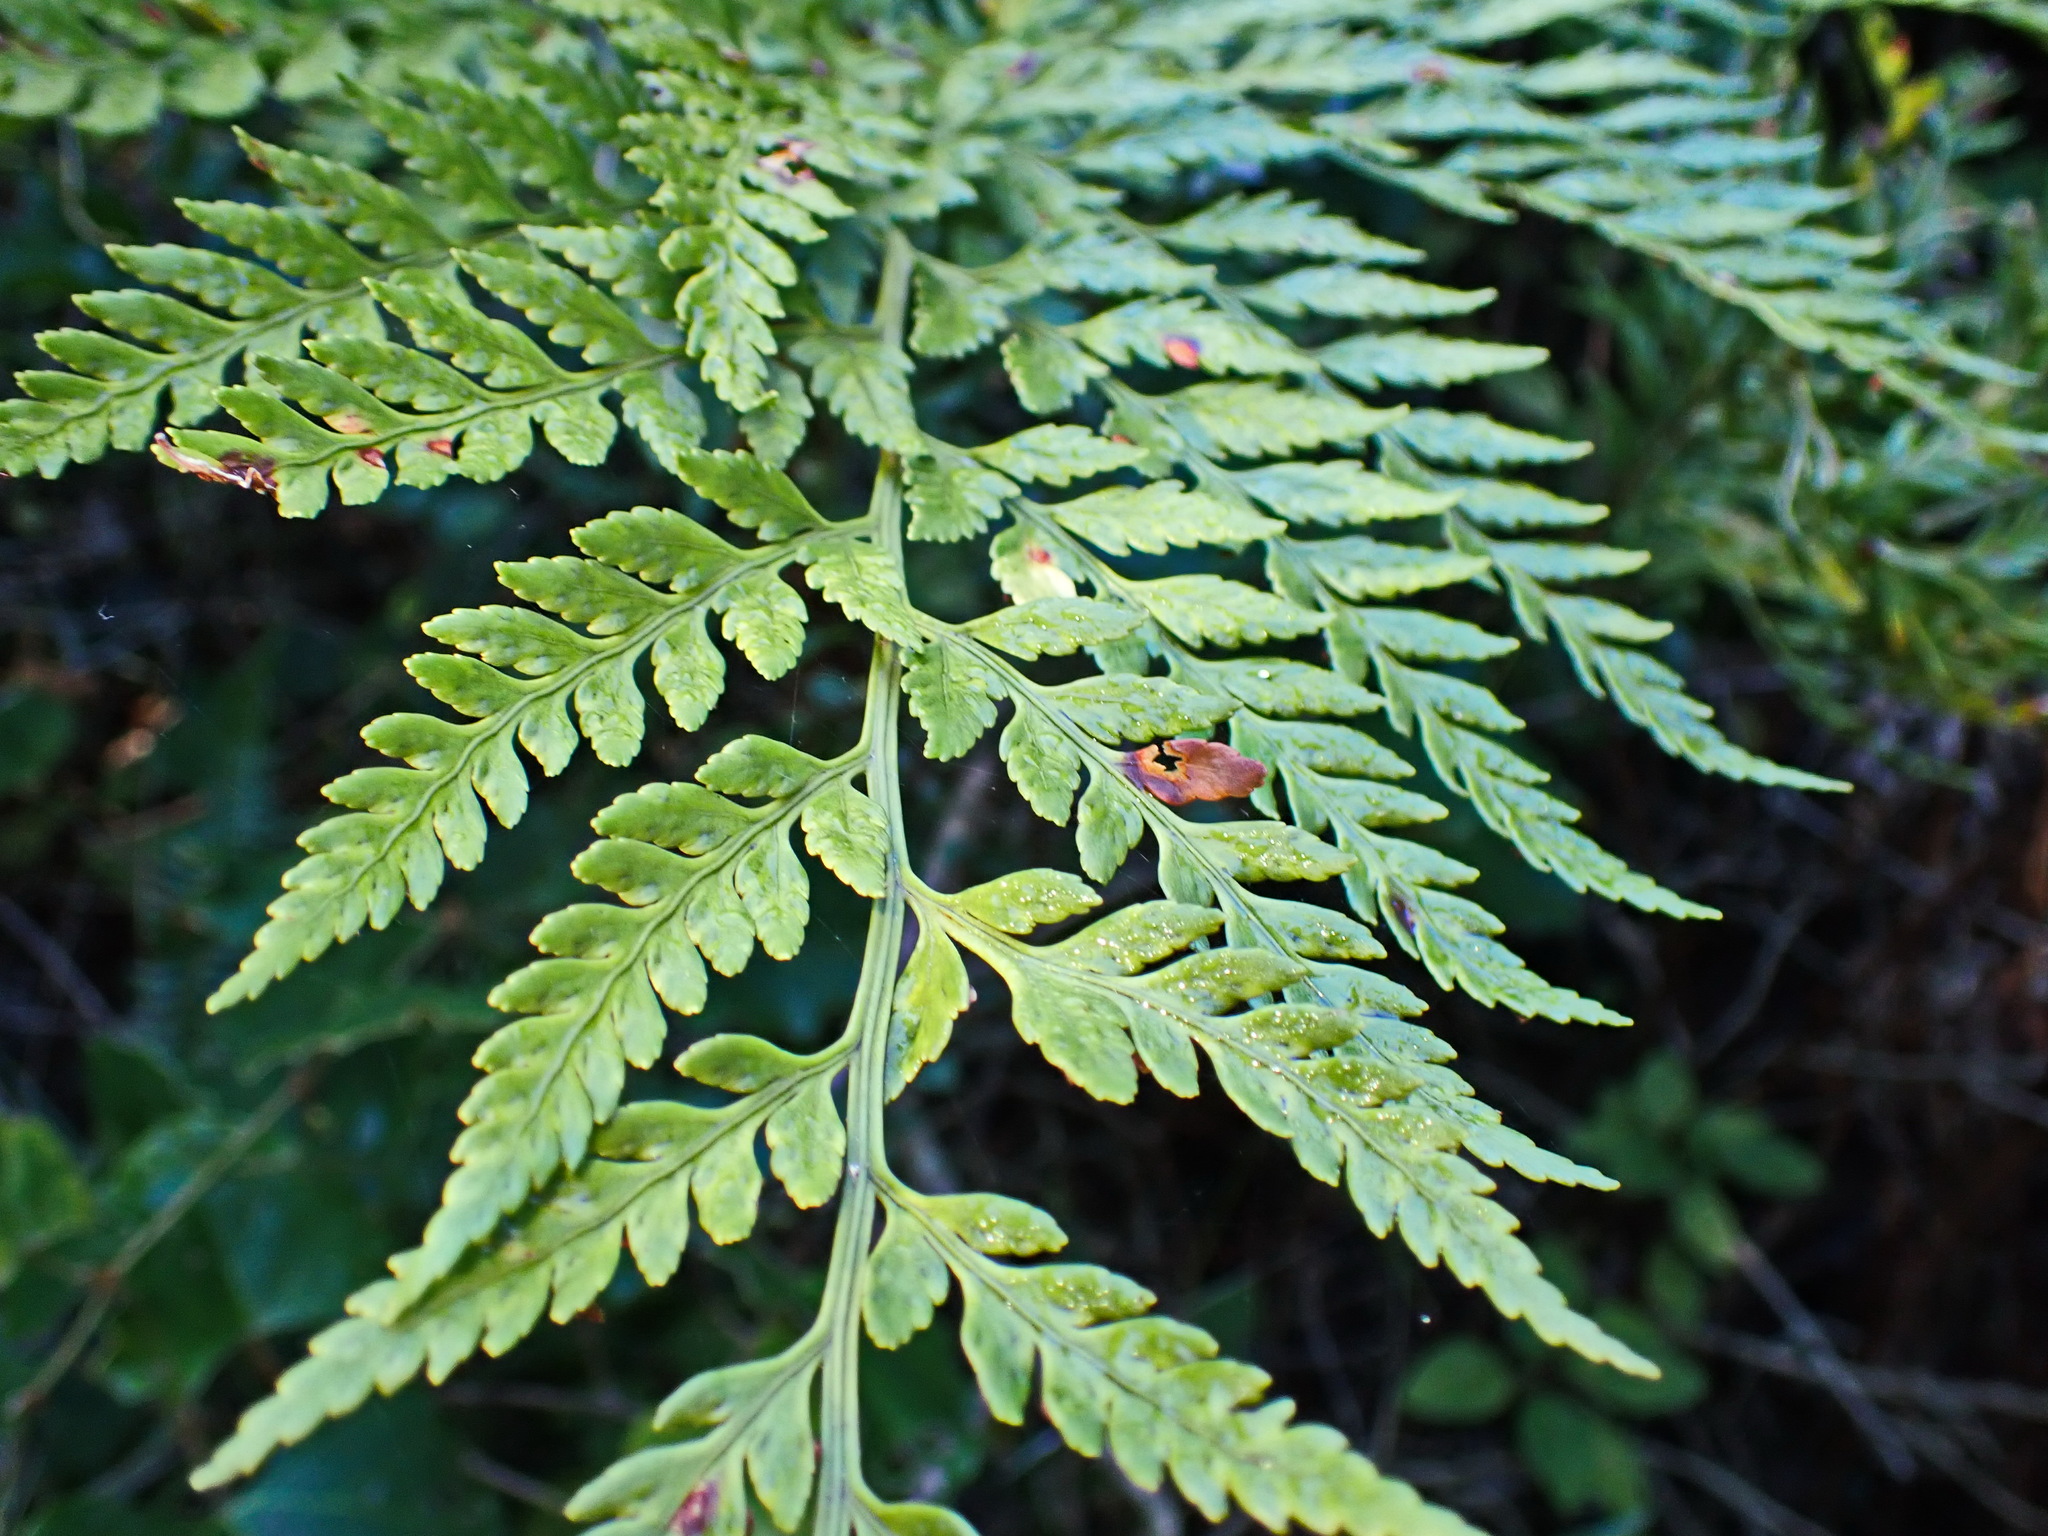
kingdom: Plantae
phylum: Tracheophyta
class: Polypodiopsida
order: Polypodiales
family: Dryopteridaceae
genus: Rumohra
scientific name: Rumohra adiantiformis
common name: Leather fern
